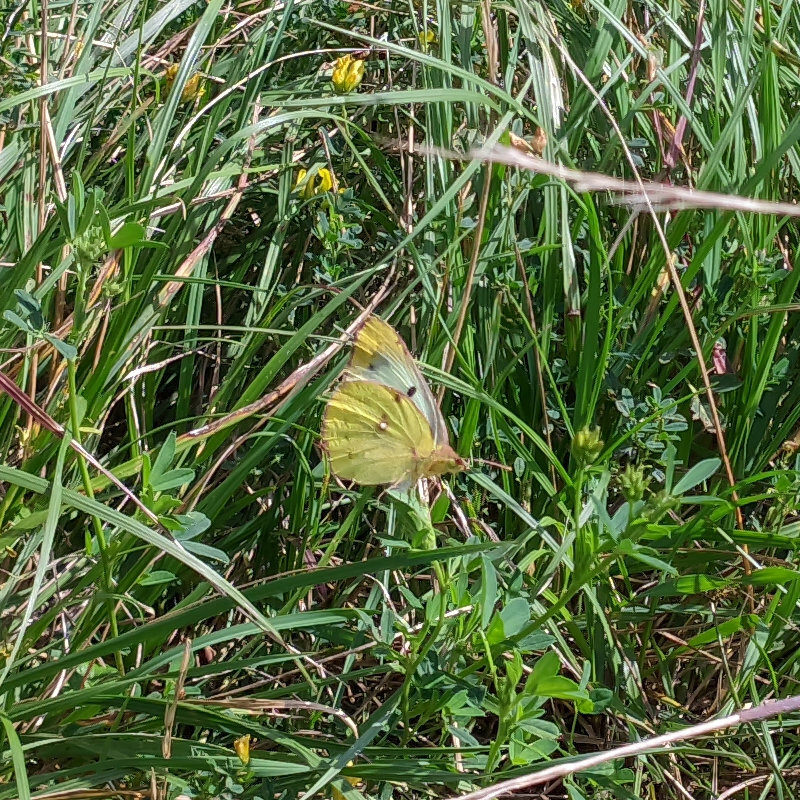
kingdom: Animalia
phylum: Arthropoda
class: Insecta
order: Lepidoptera
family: Pieridae
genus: Colias
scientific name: Colias hyale
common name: Pale clouded yellow
